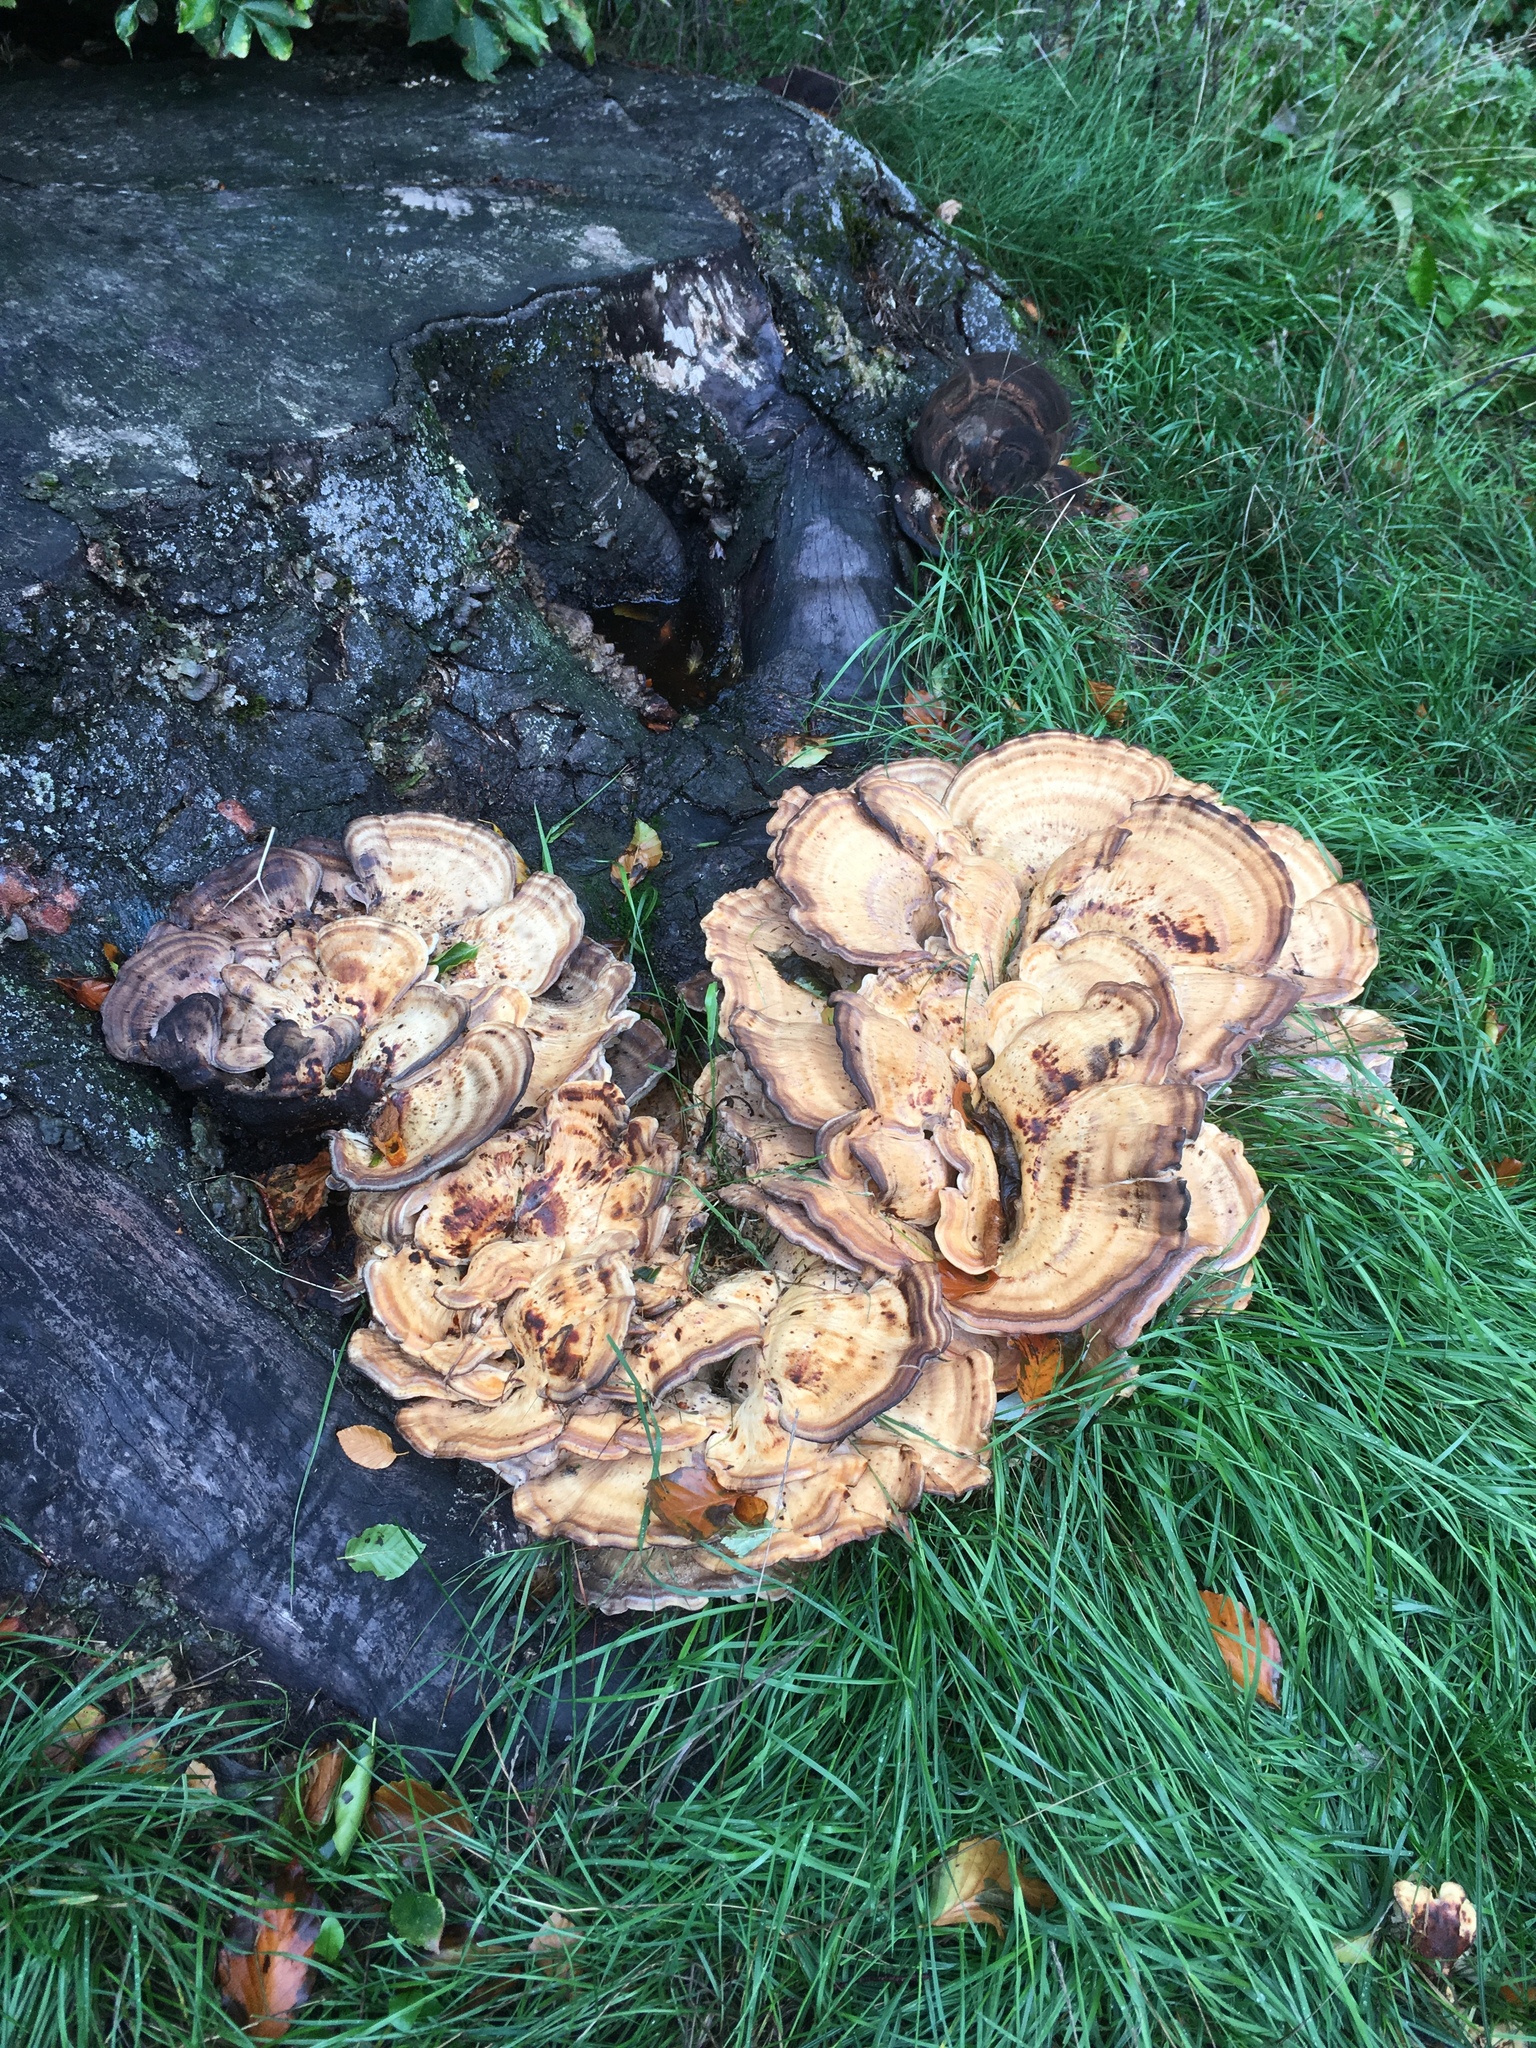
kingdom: Fungi
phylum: Basidiomycota
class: Agaricomycetes
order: Polyporales
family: Meripilaceae
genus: Meripilus
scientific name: Meripilus giganteus
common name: Giant polypore
